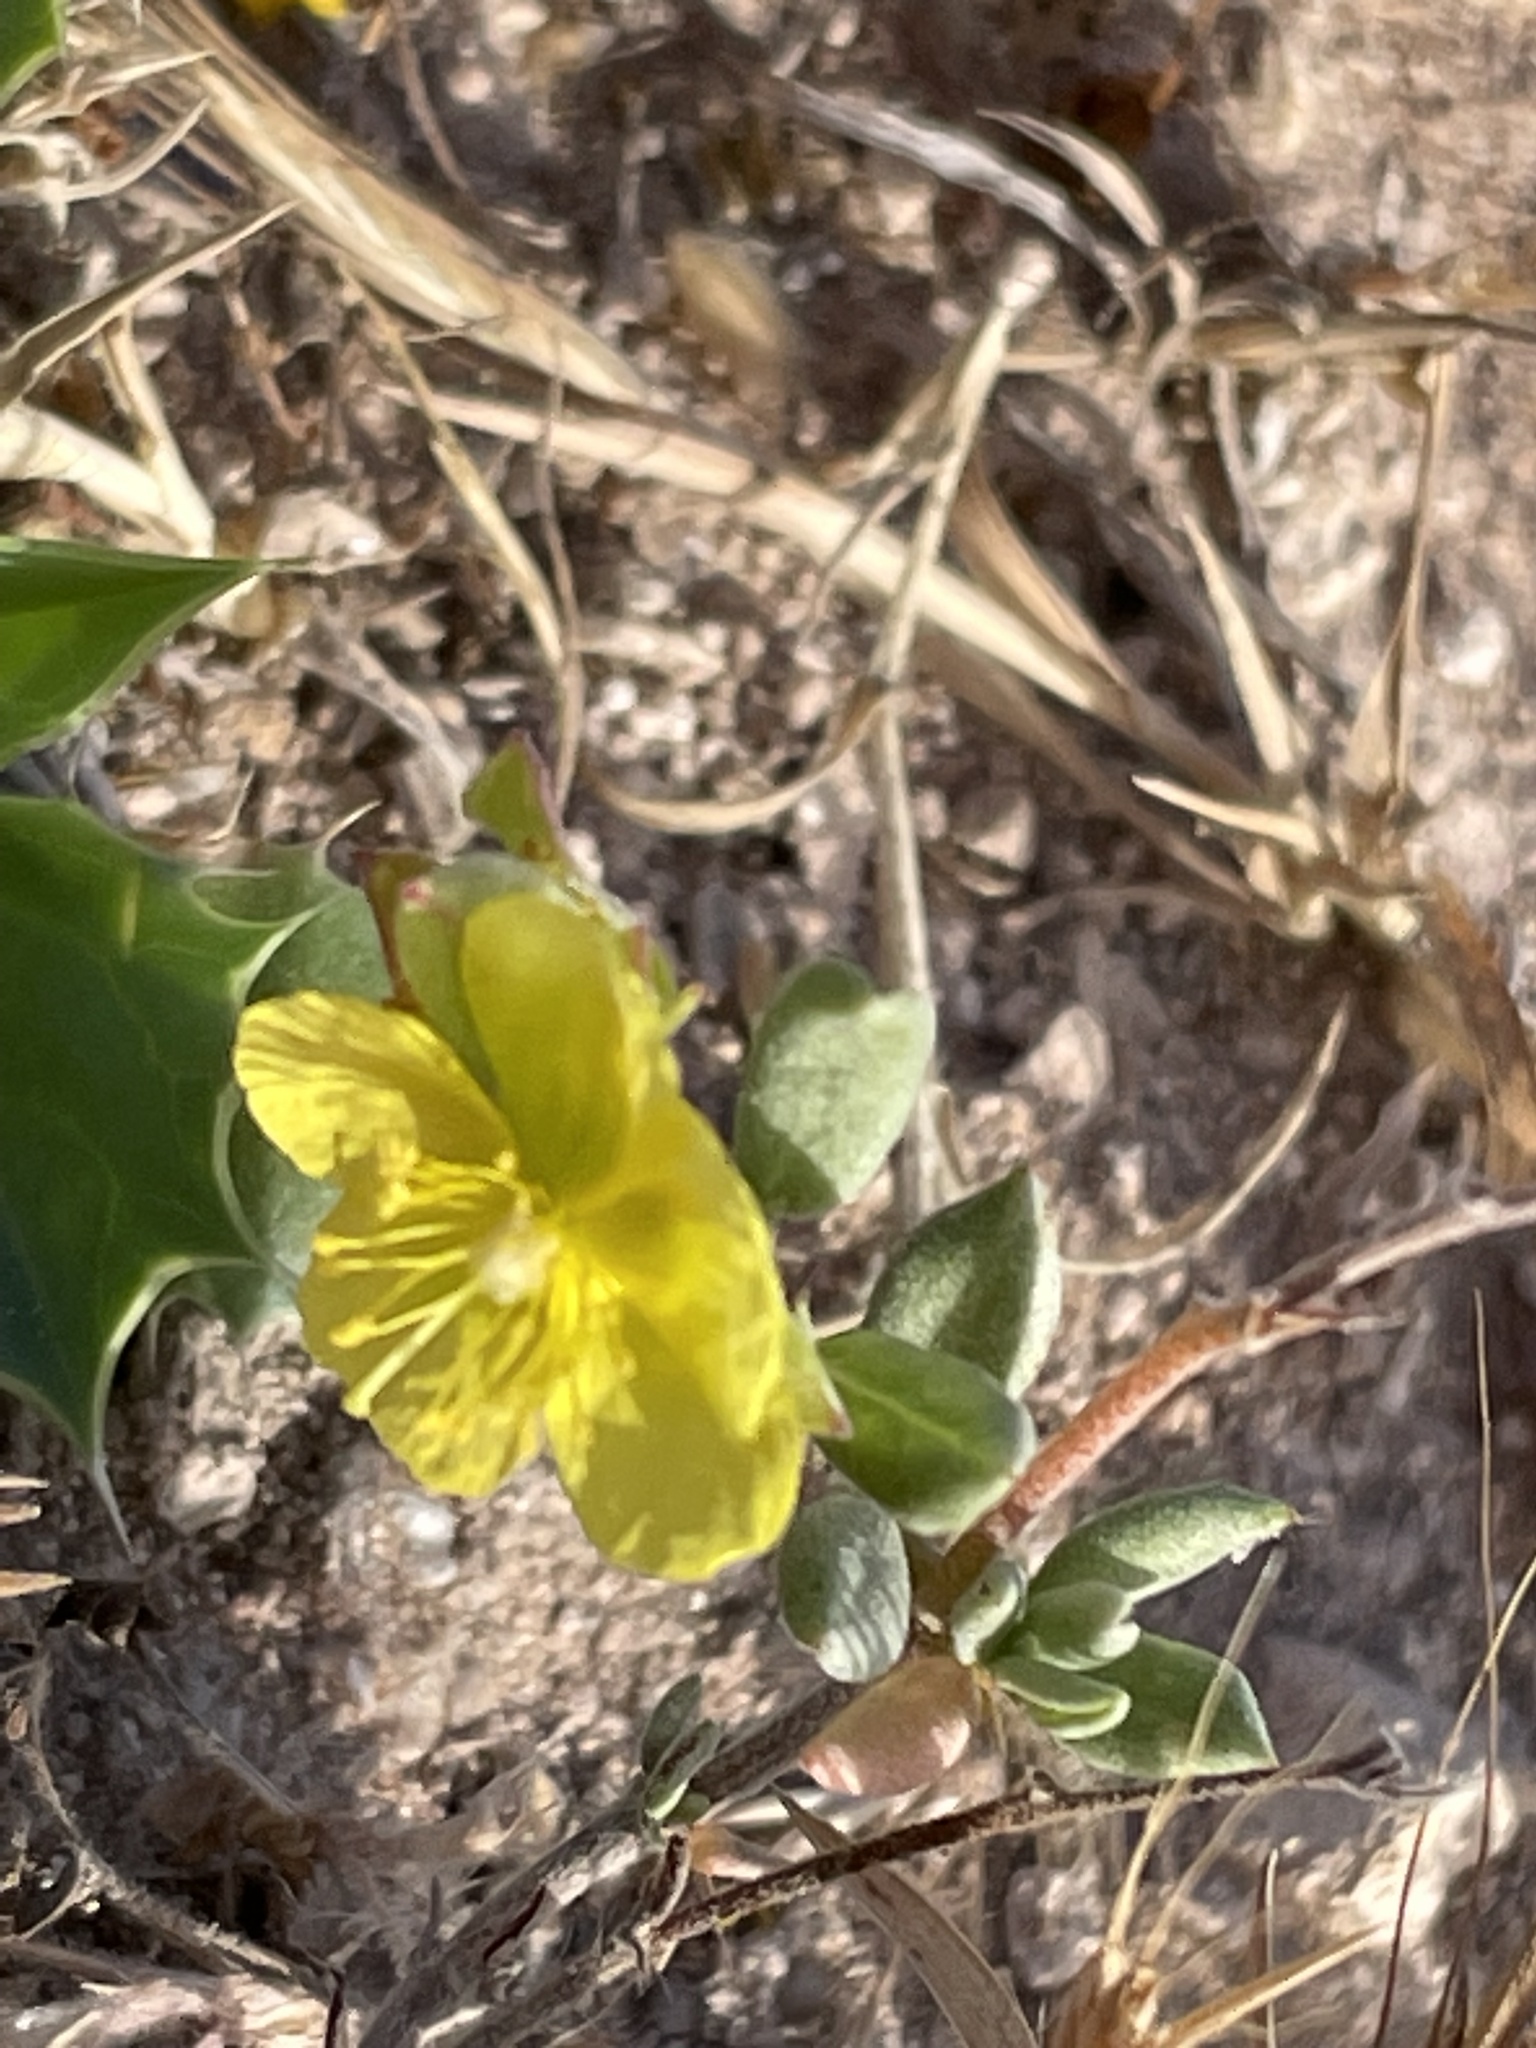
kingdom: Plantae
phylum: Tracheophyta
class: Magnoliopsida
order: Malvales
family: Cistaceae
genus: Helianthemum
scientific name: Helianthemum canariense
